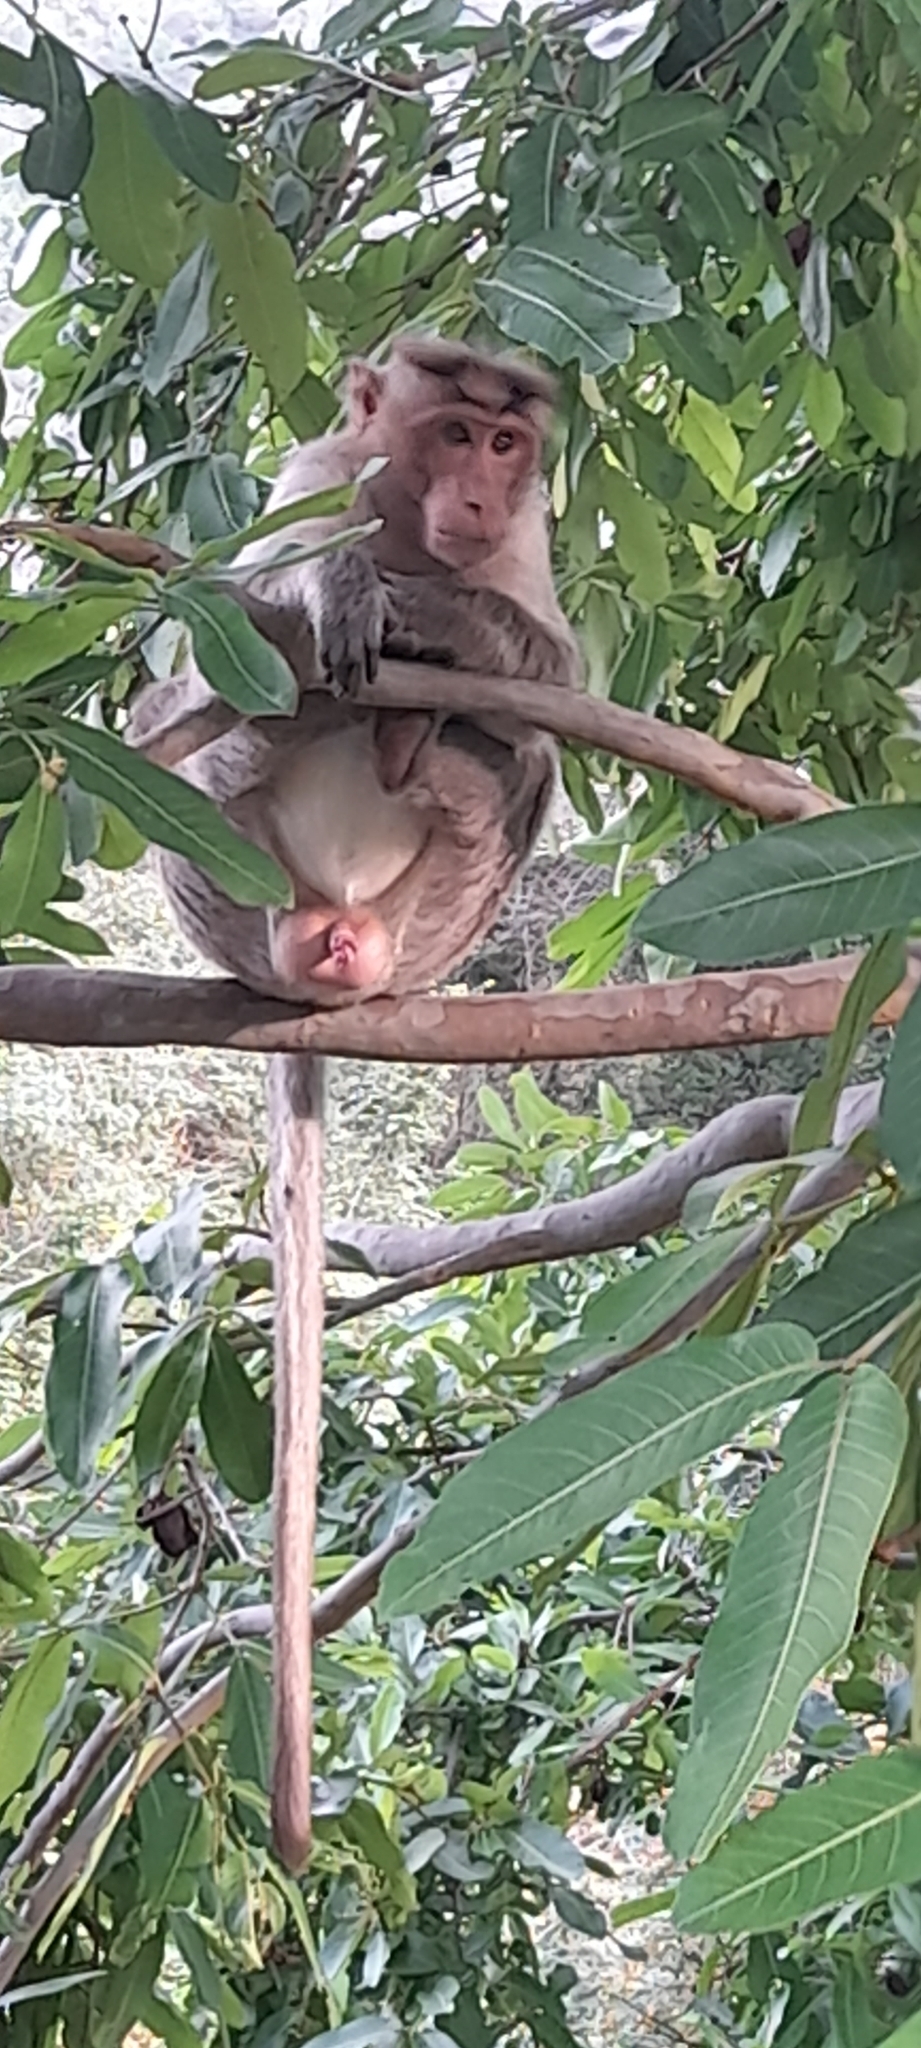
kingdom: Animalia
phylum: Chordata
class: Mammalia
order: Primates
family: Cercopithecidae
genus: Macaca
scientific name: Macaca radiata
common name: Bonnet macaque
